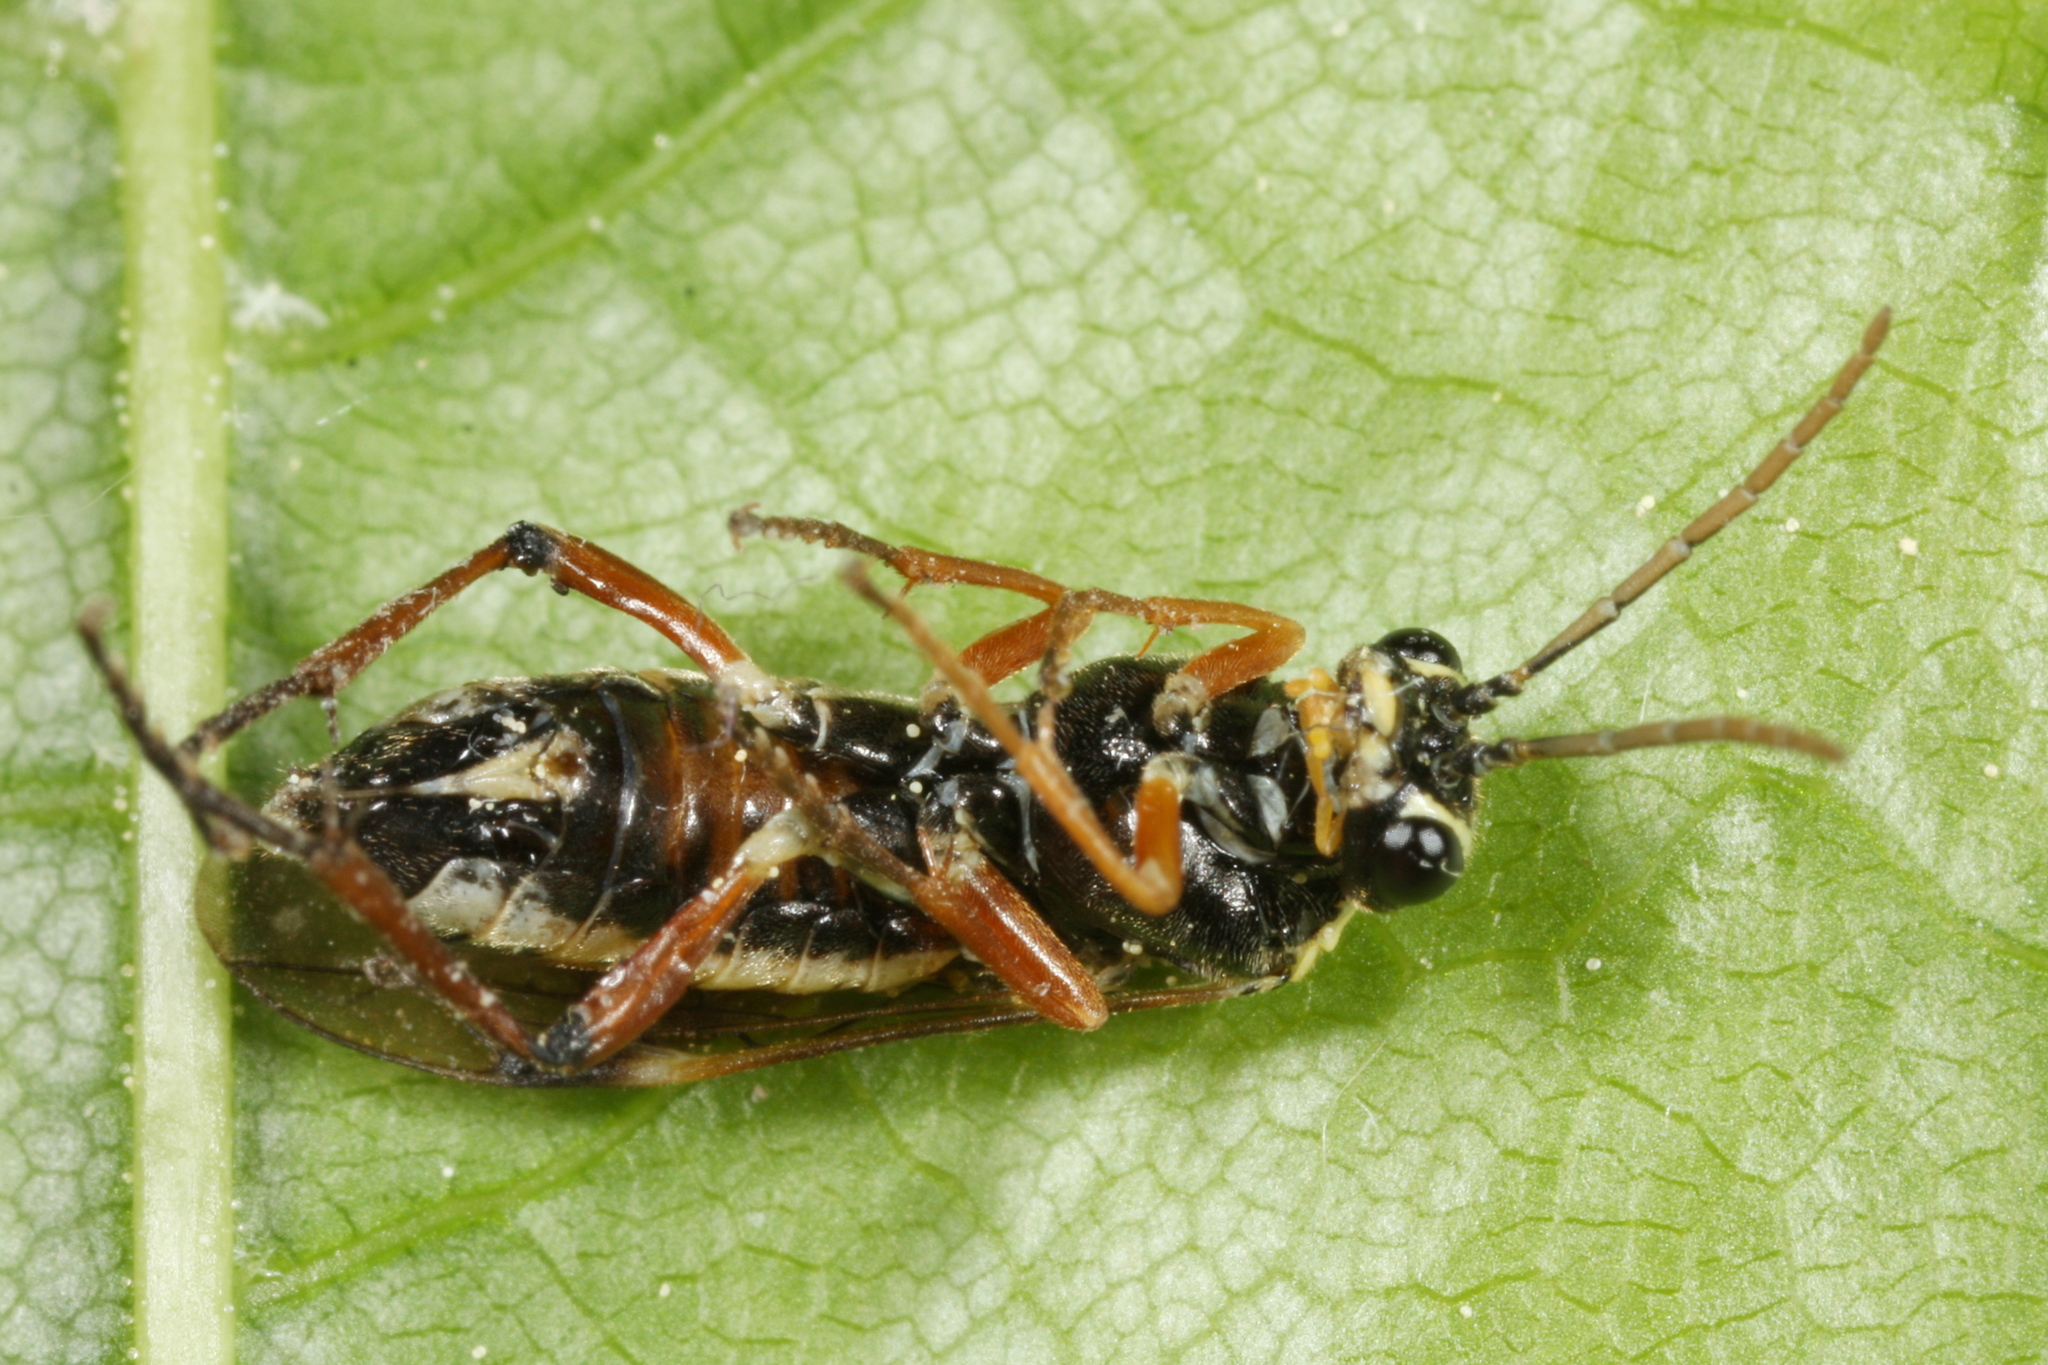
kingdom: Animalia
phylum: Arthropoda
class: Insecta
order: Hymenoptera
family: Tenthredinidae
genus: Aglaostigma
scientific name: Aglaostigma fulvipes
